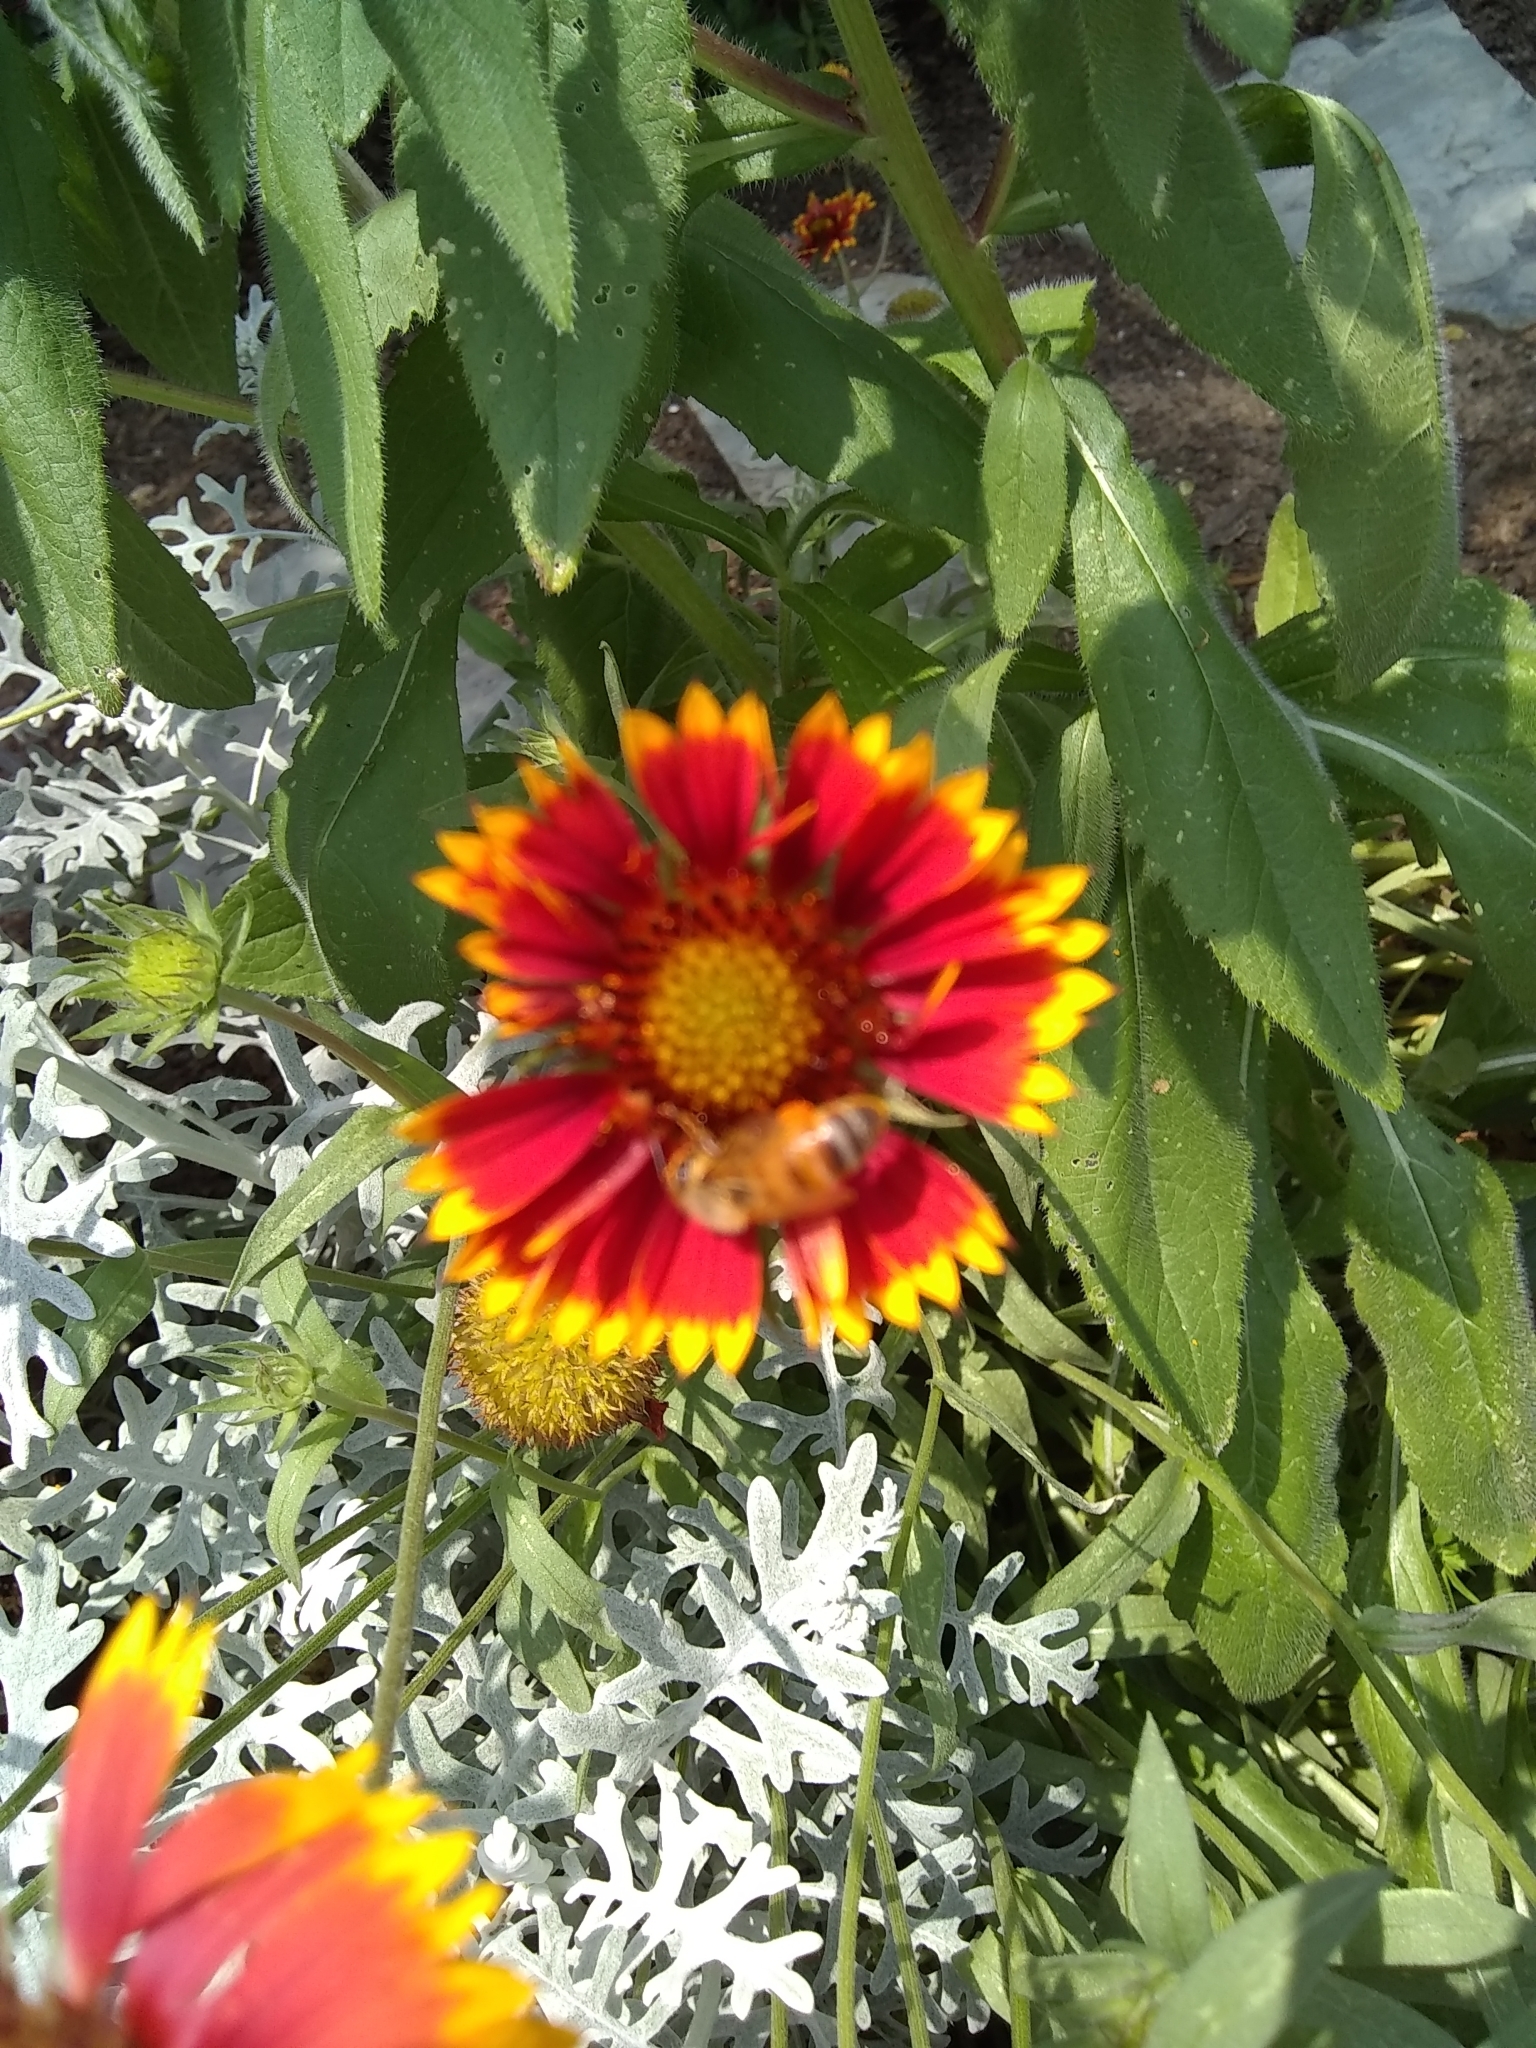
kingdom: Animalia
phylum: Arthropoda
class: Insecta
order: Hymenoptera
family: Apidae
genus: Apis
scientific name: Apis mellifera
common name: Honey bee
